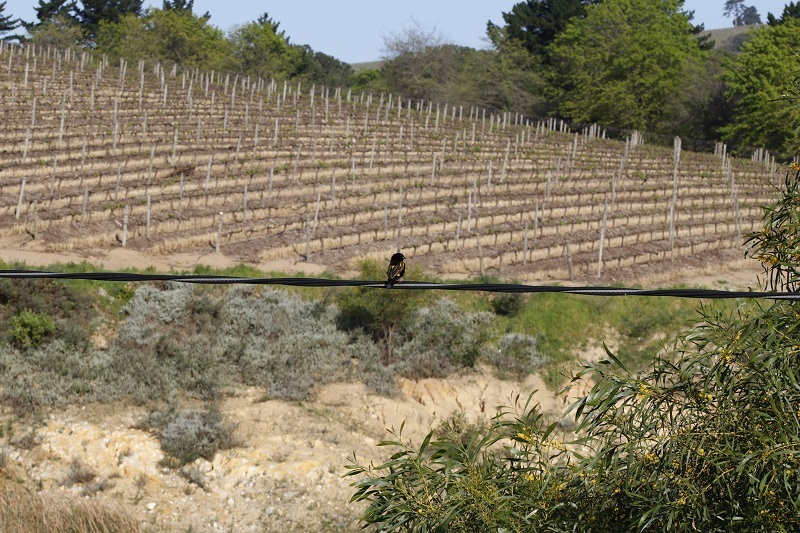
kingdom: Animalia
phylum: Chordata
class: Aves
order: Passeriformes
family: Ploceidae
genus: Euplectes
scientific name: Euplectes capensis
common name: Yellow bishop
